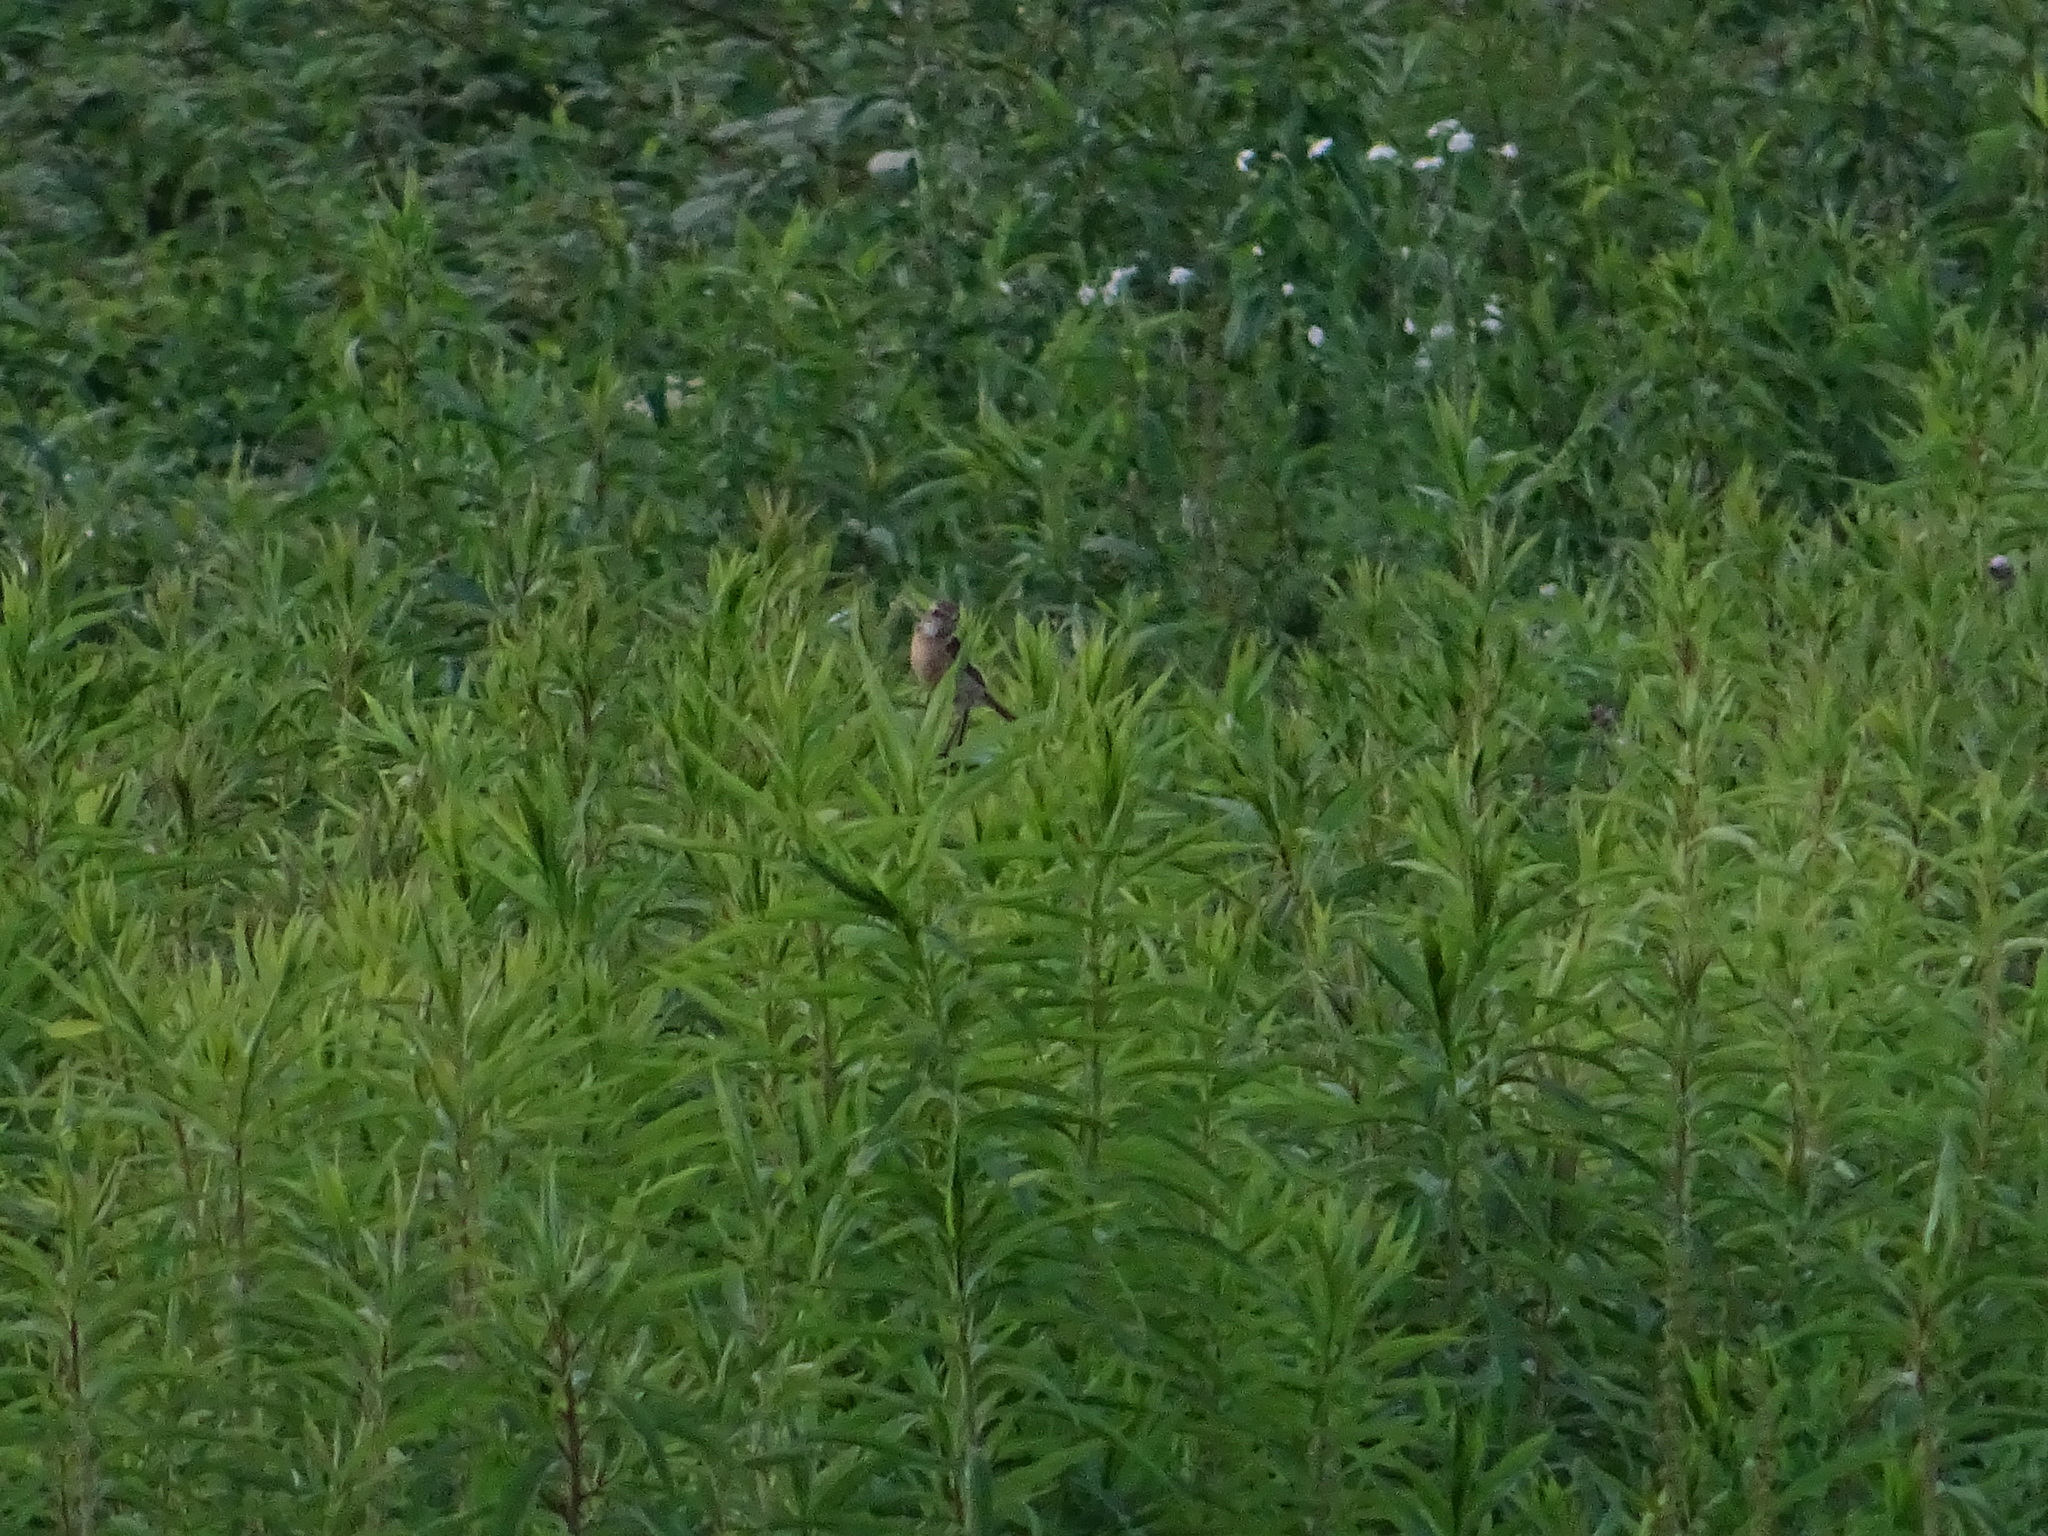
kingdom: Animalia
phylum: Chordata
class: Aves
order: Passeriformes
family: Muscicapidae
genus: Saxicola
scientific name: Saxicola rubicola
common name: European stonechat
